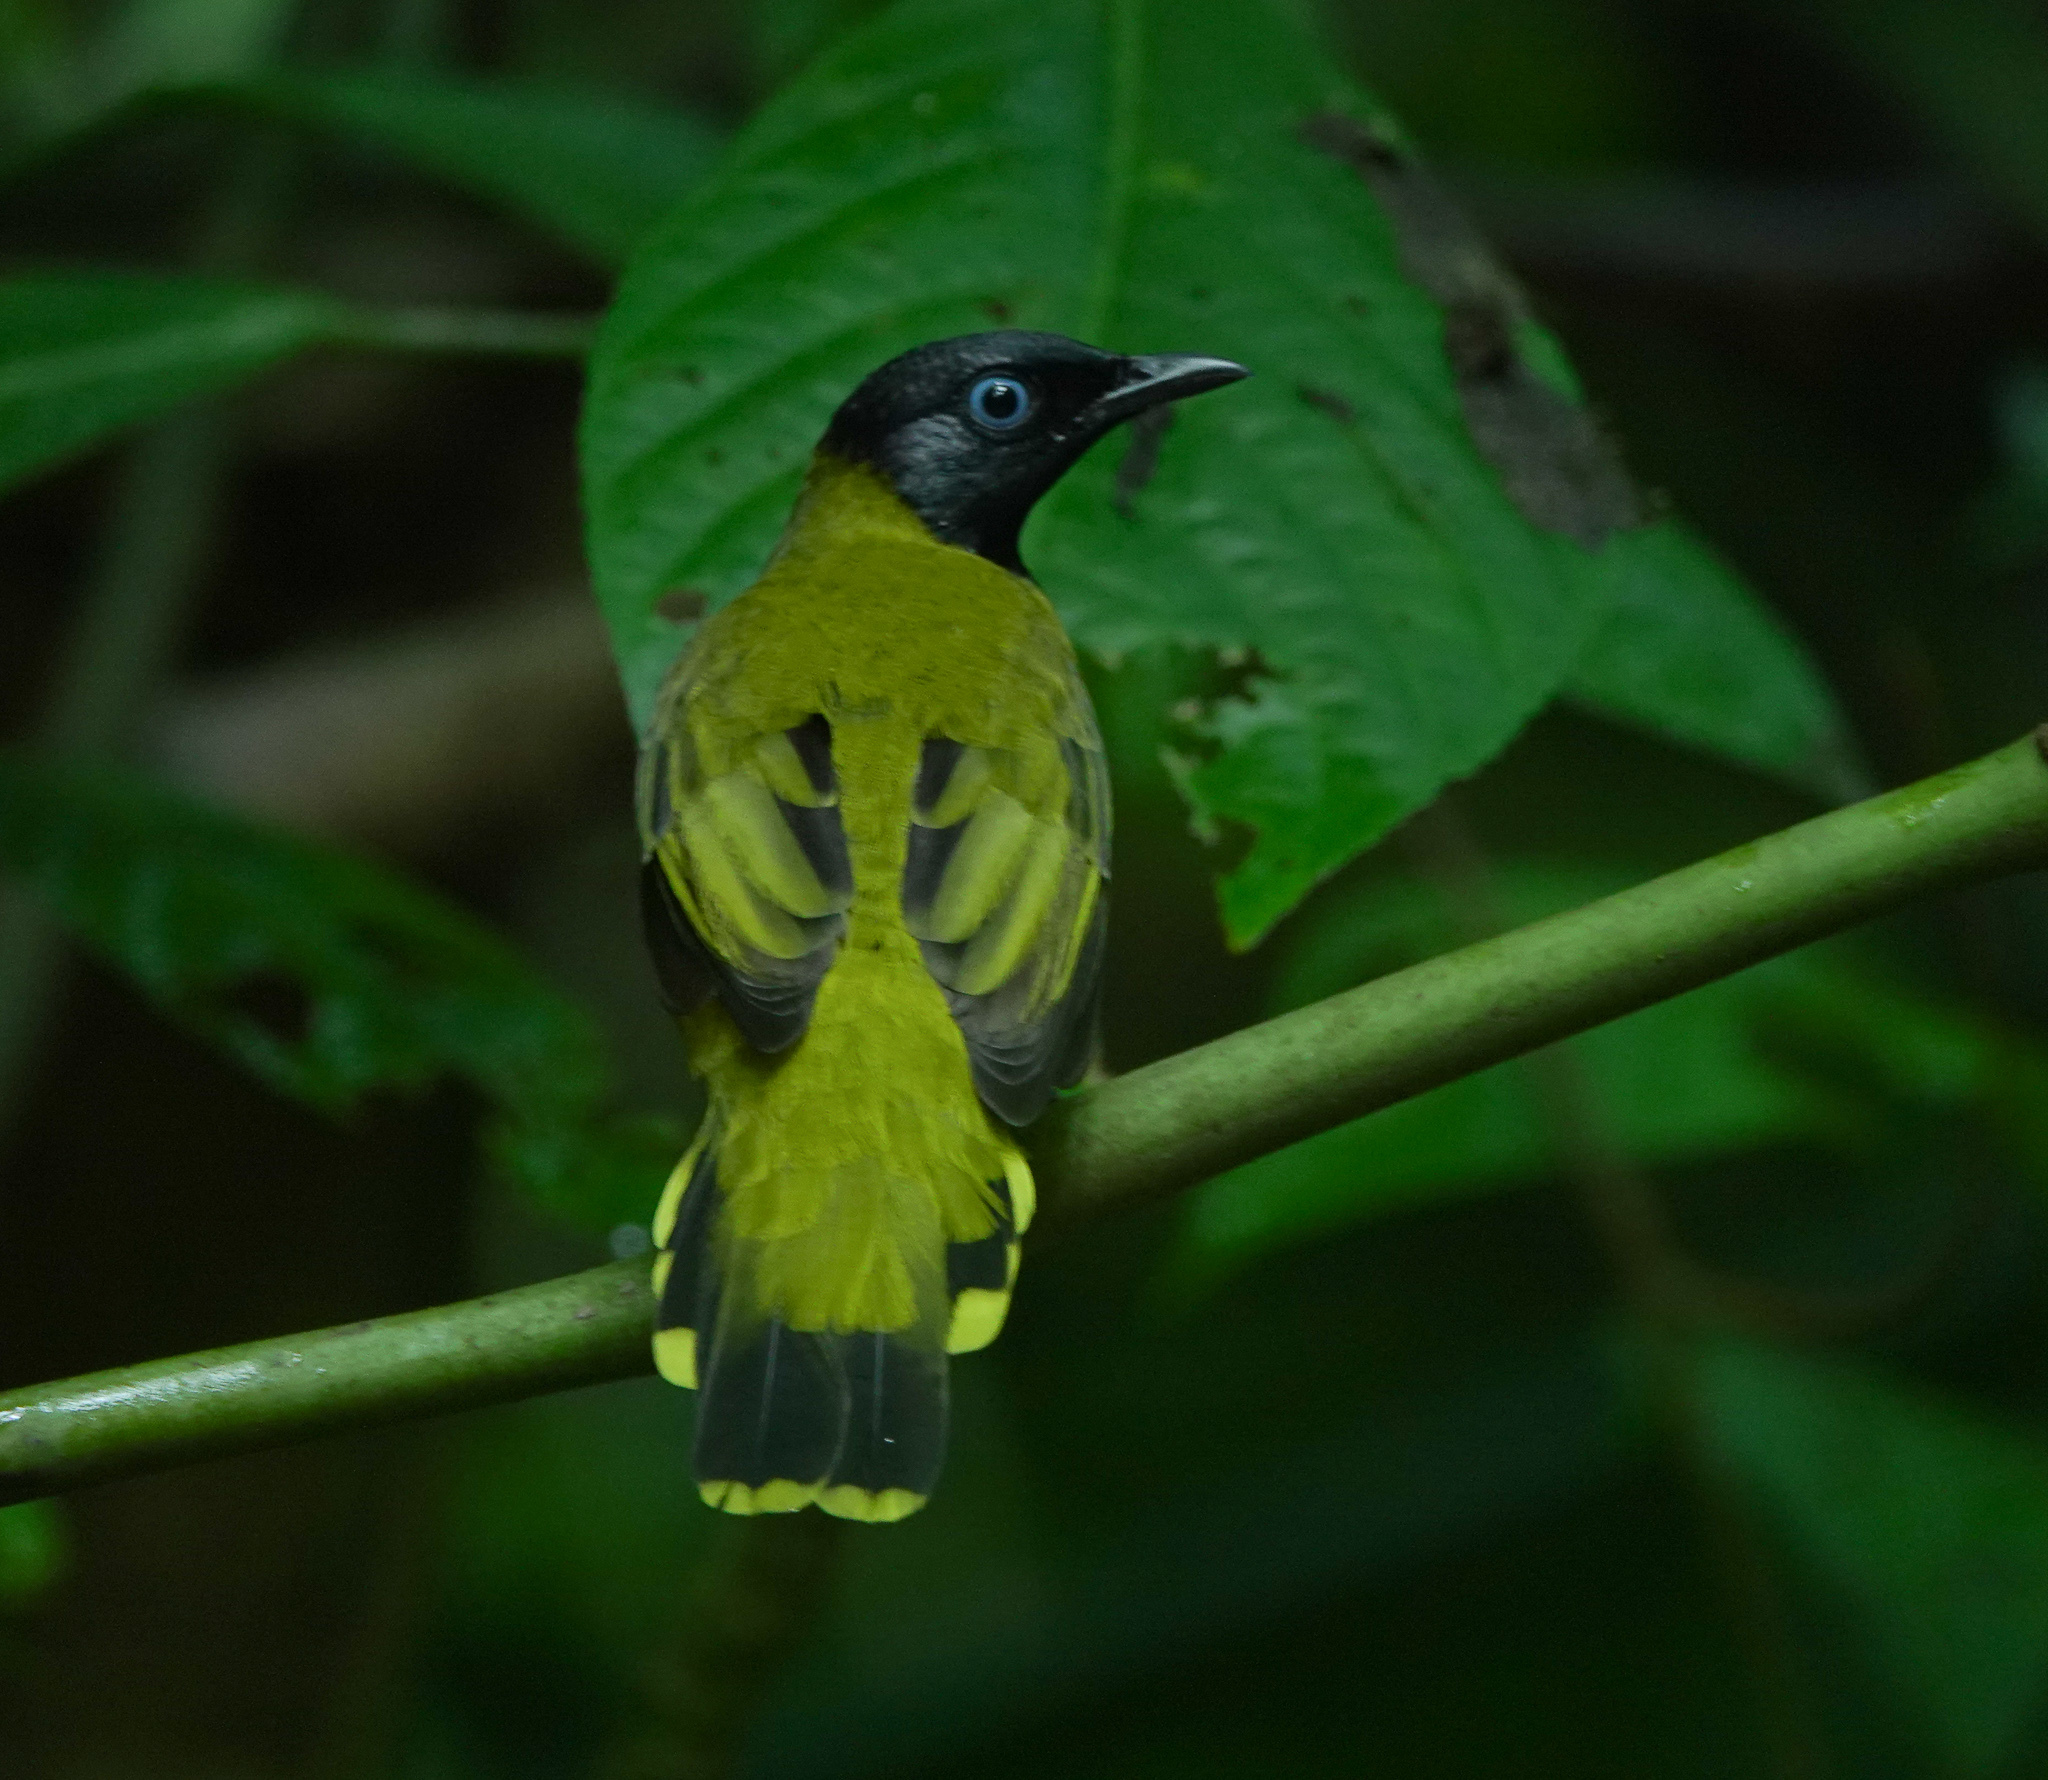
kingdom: Animalia
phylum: Chordata
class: Aves
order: Passeriformes
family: Pycnonotidae
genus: Microtarsus
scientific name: Microtarsus
